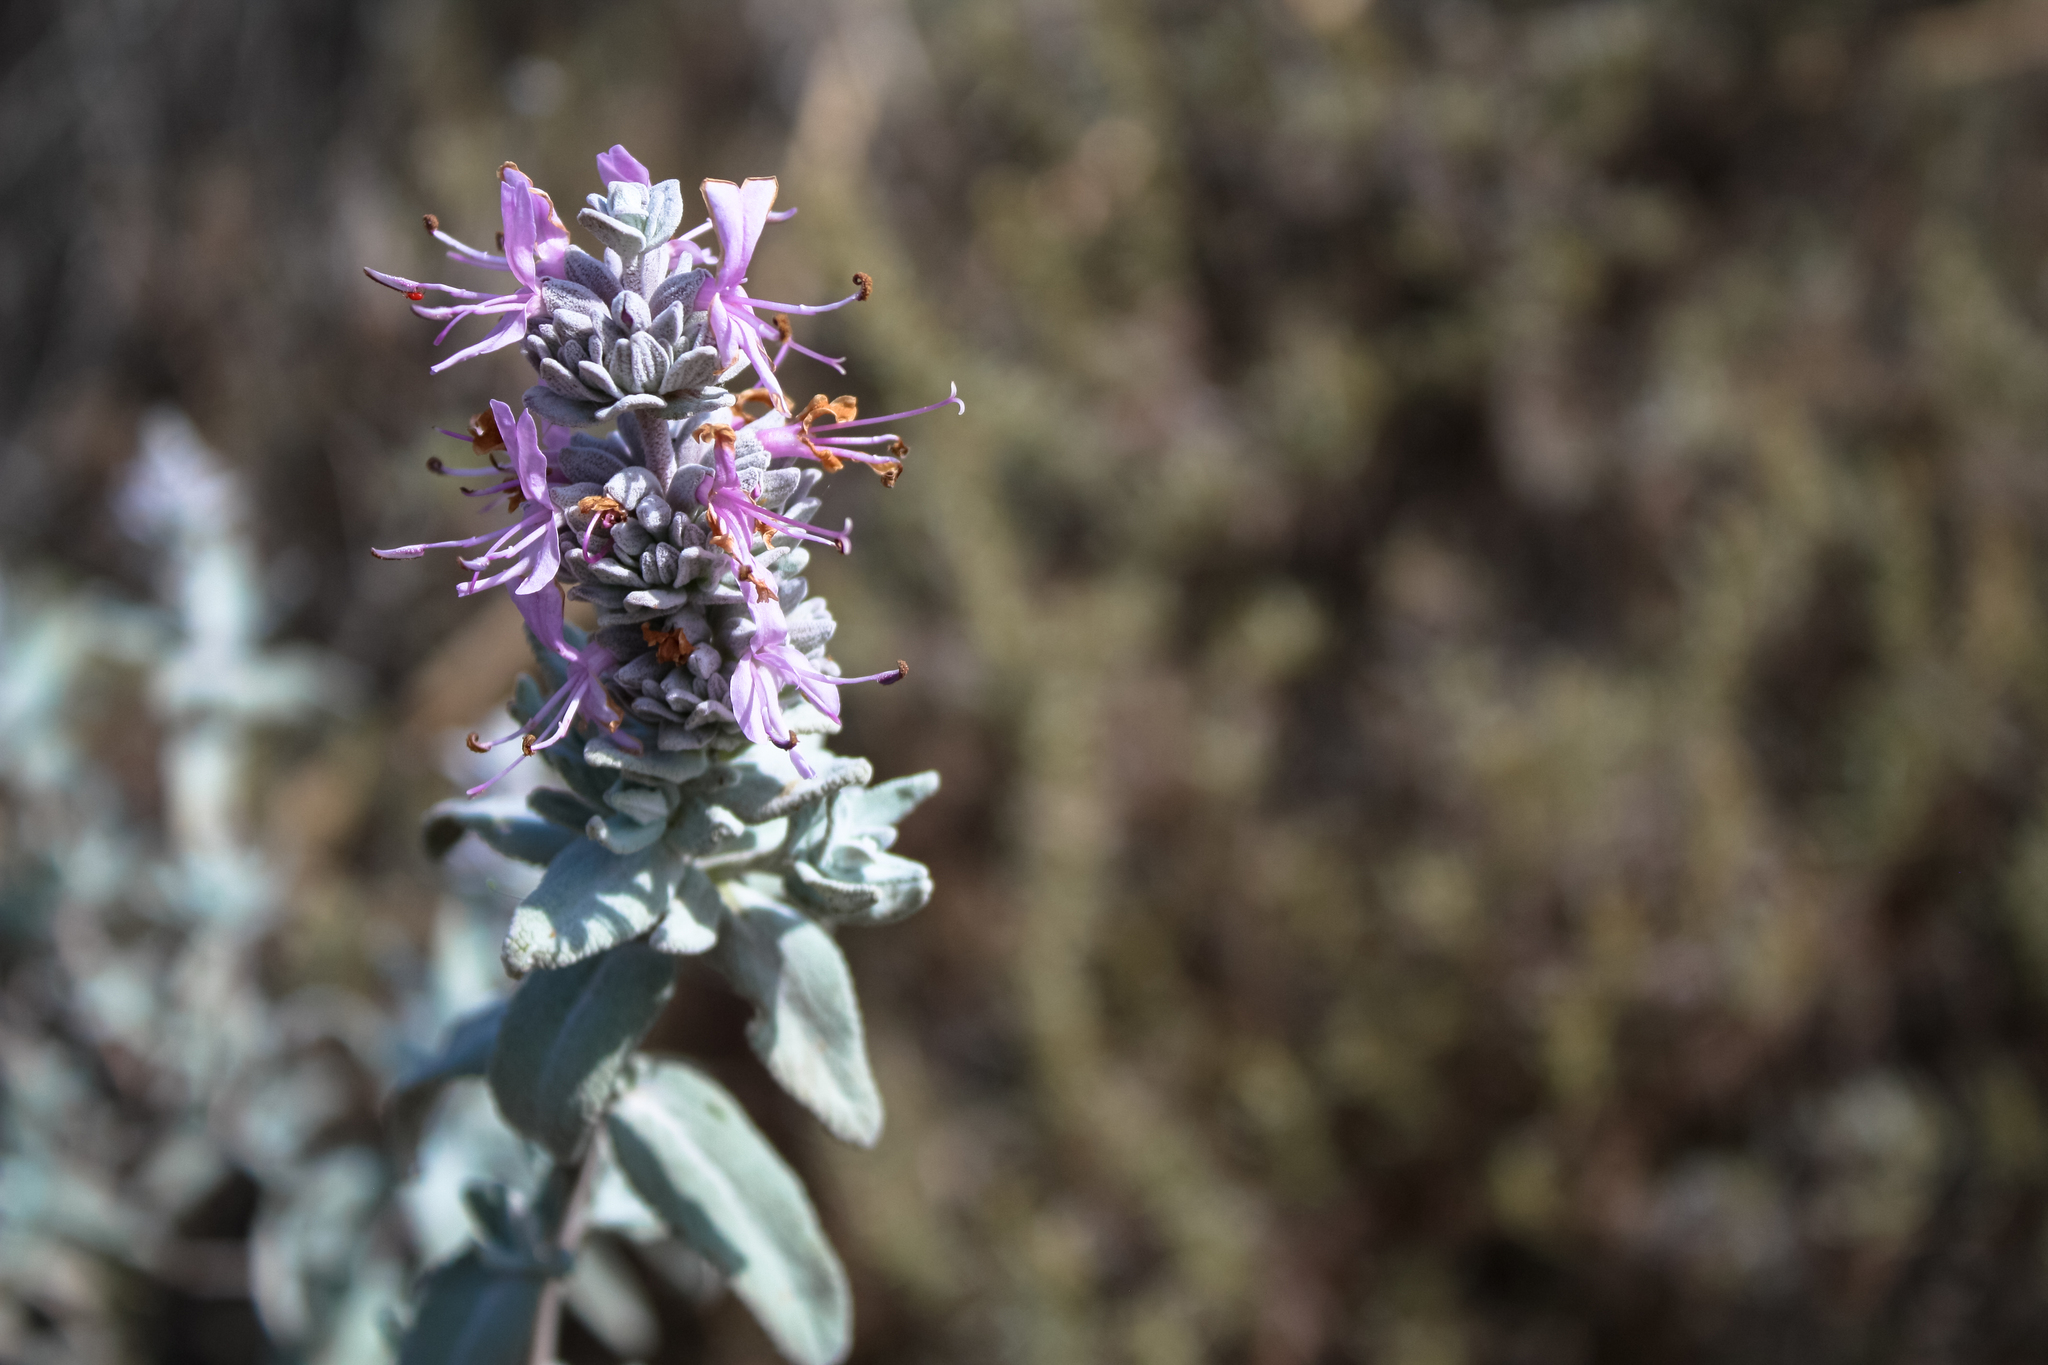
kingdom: Plantae
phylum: Tracheophyta
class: Magnoliopsida
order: Lamiales
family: Lamiaceae
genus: Salvia
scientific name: Salvia leucophylla
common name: Purple sage
